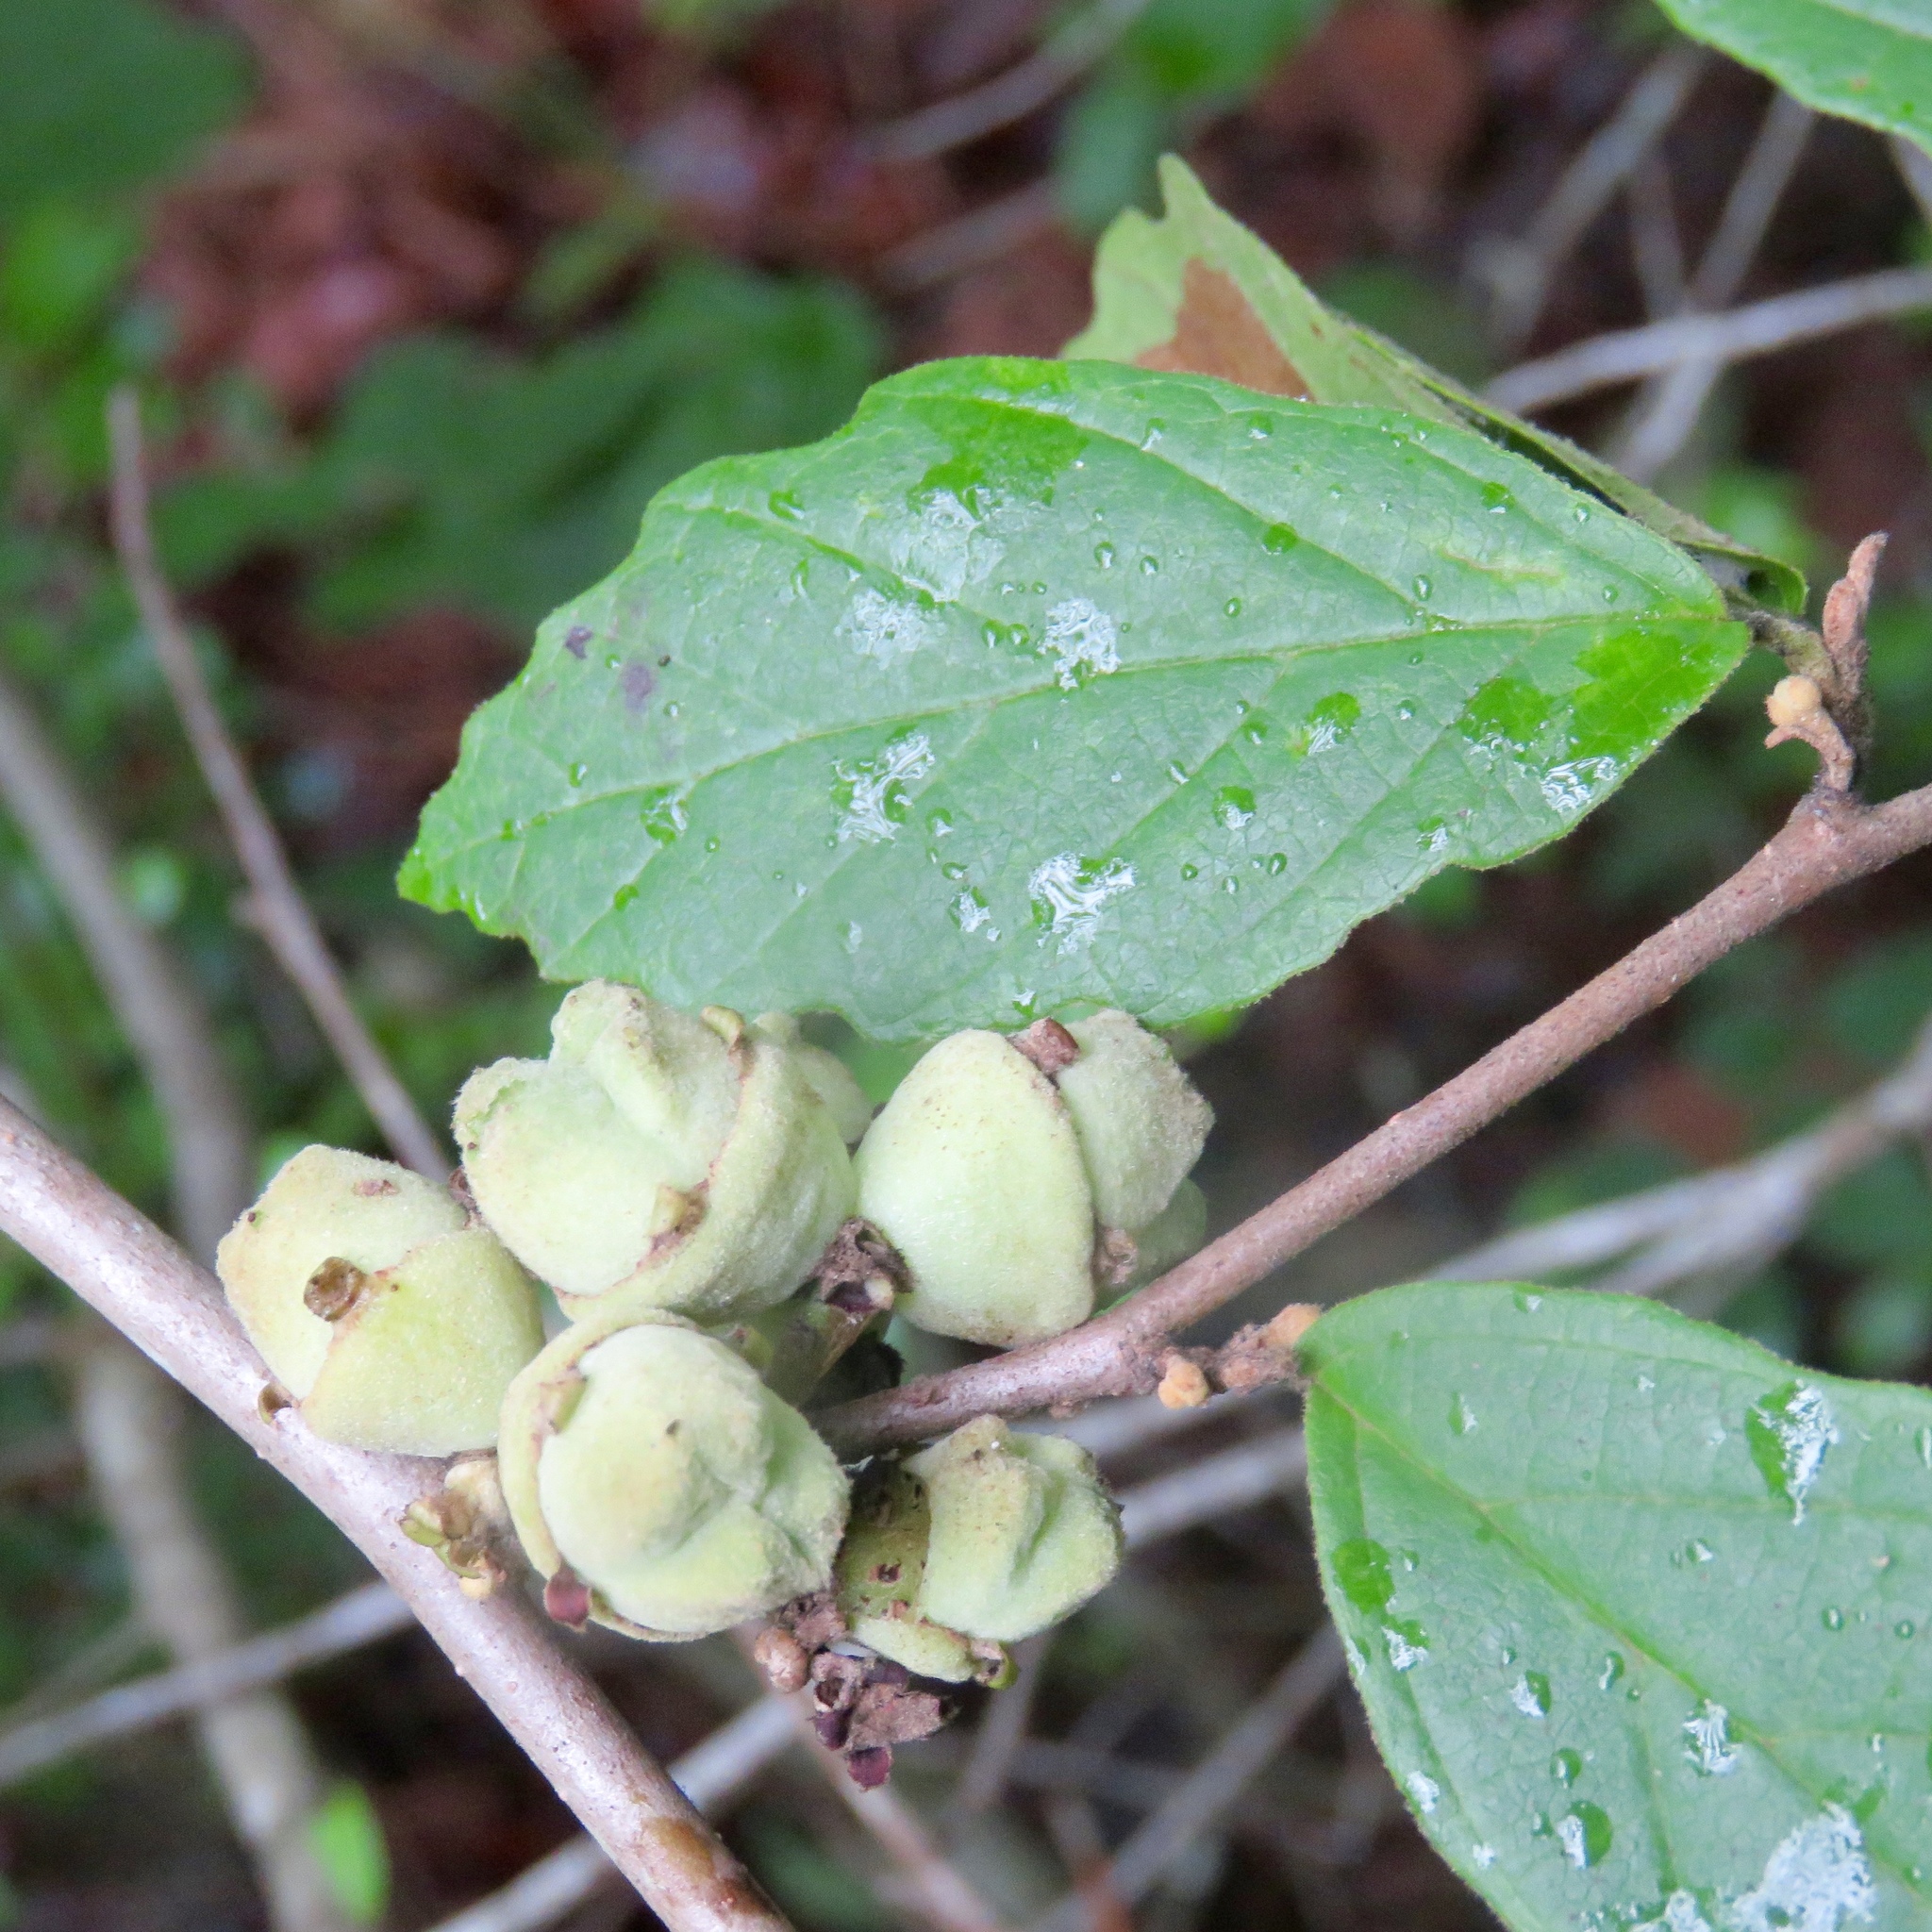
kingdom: Plantae
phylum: Tracheophyta
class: Magnoliopsida
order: Saxifragales
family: Hamamelidaceae
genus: Hamamelis
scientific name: Hamamelis virginiana
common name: Witch-hazel
